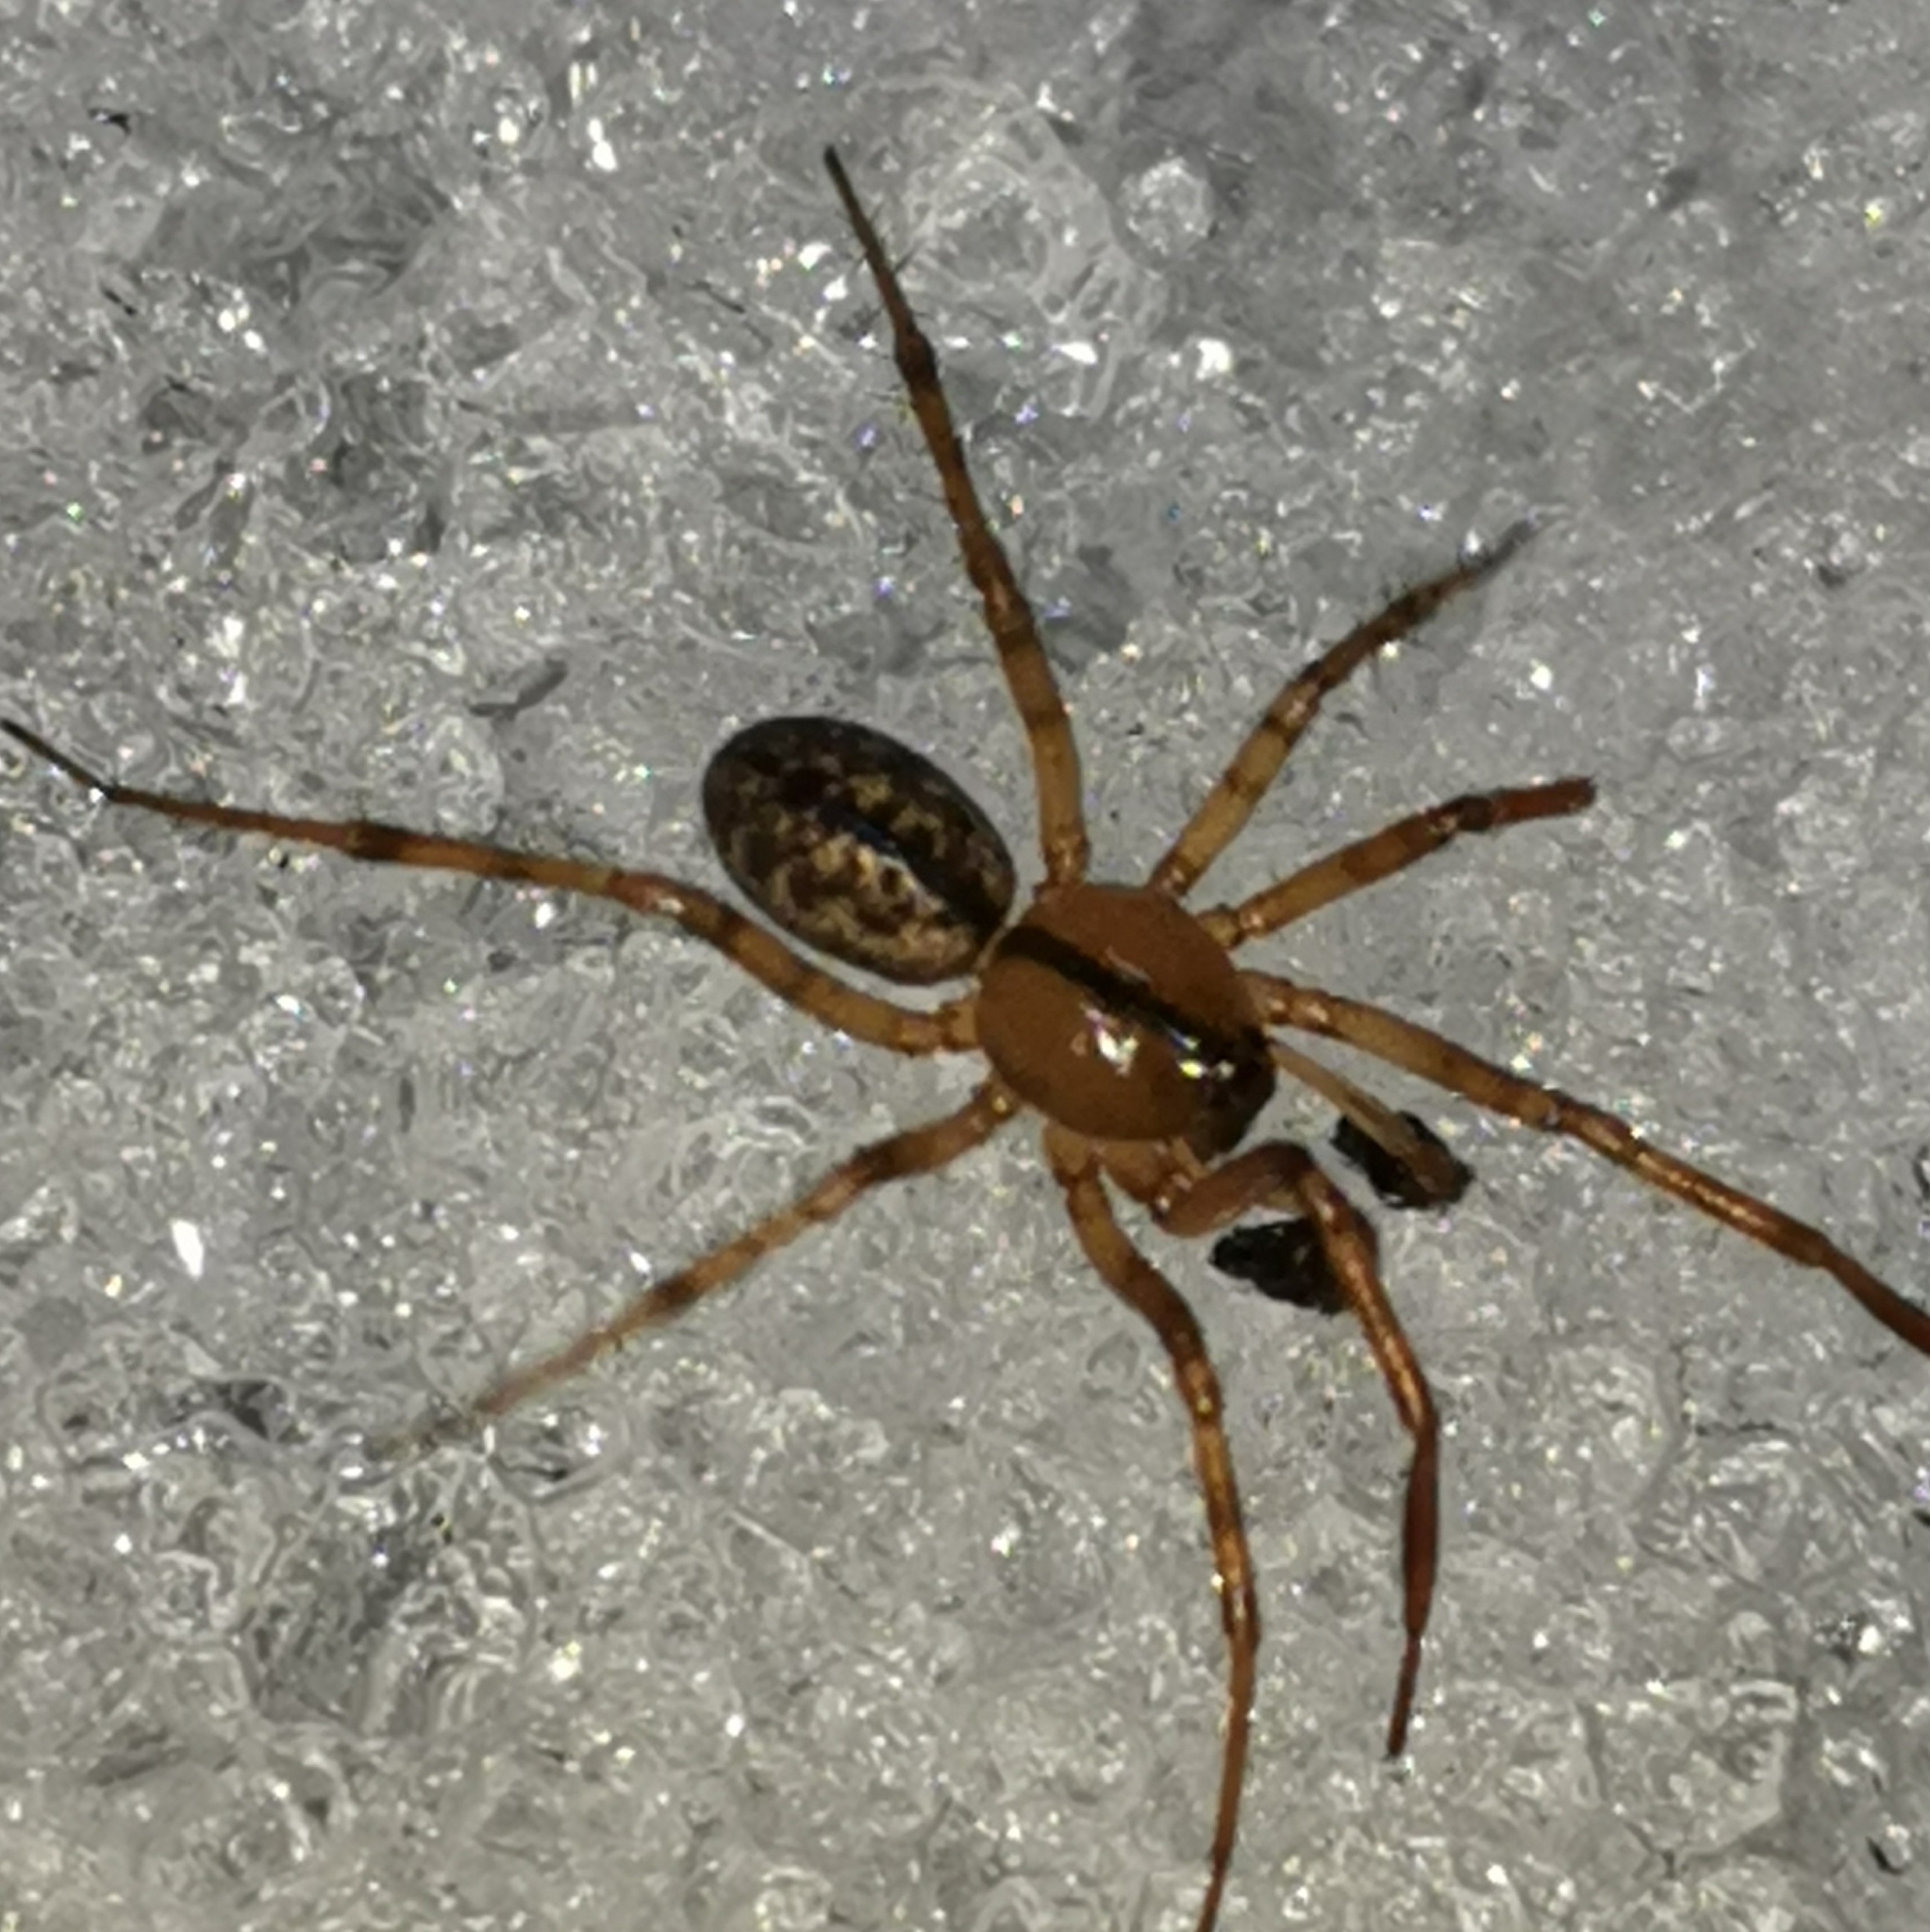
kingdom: Animalia
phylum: Arthropoda
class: Arachnida
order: Araneae
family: Linyphiidae
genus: Stemonyphantes
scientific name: Stemonyphantes lineatus
